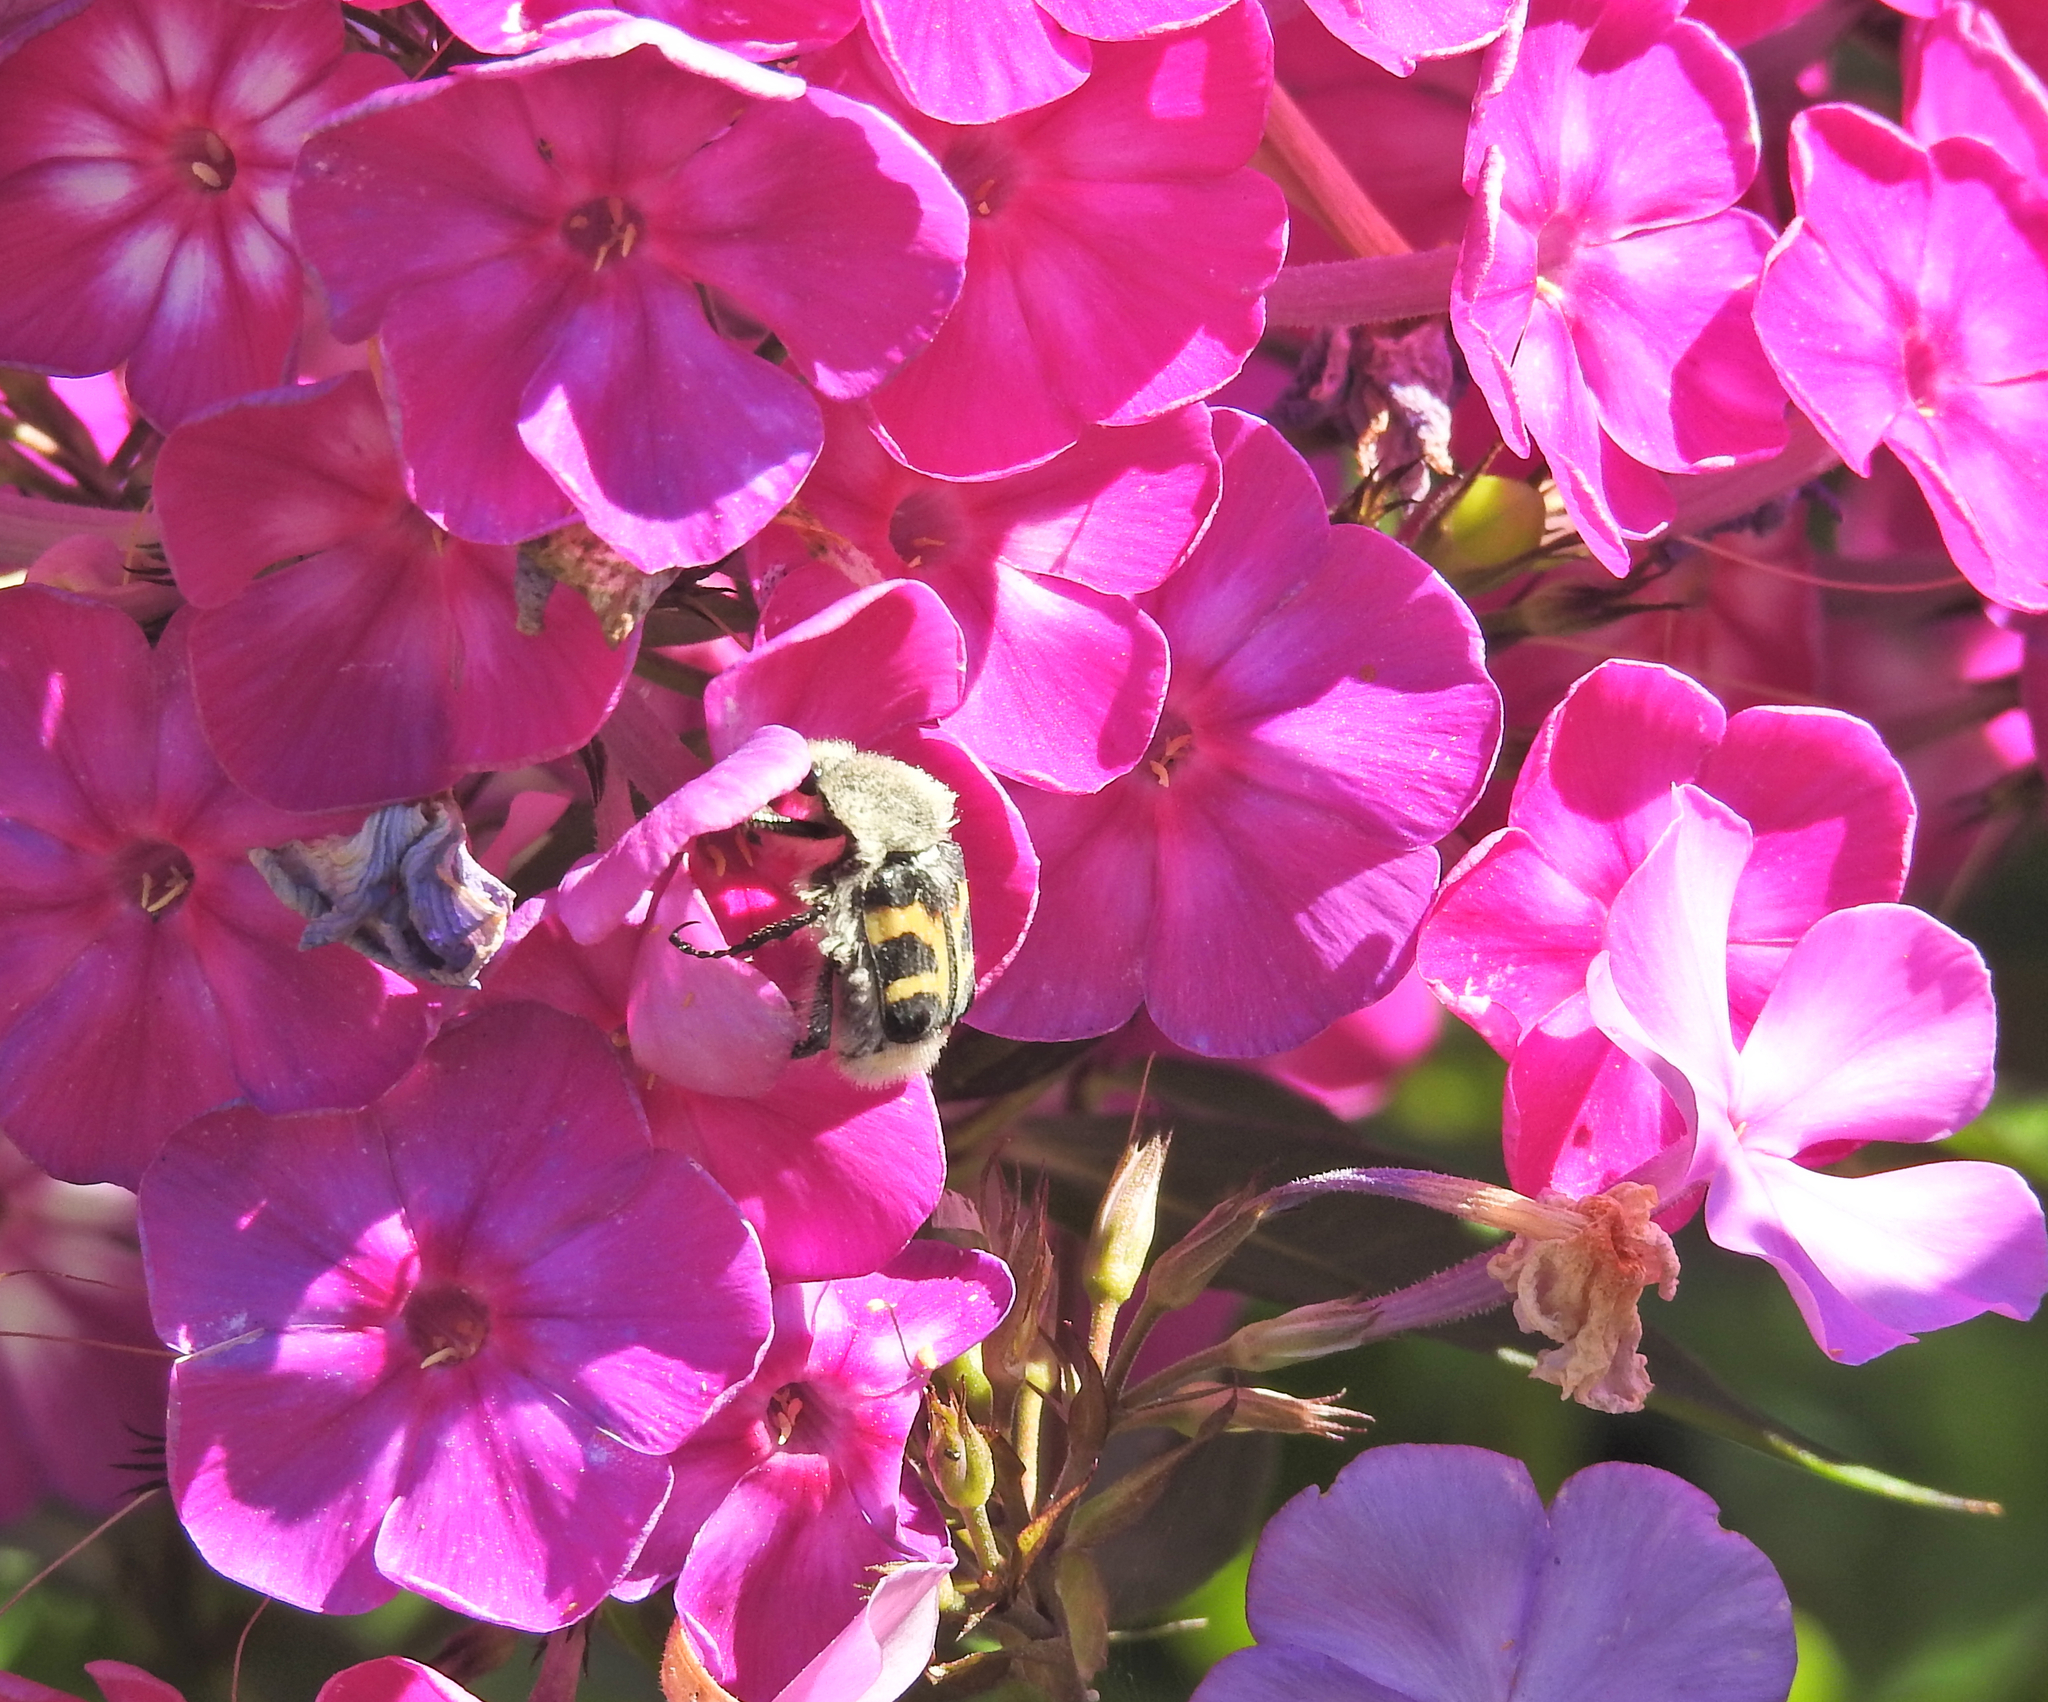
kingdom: Animalia
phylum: Arthropoda
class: Insecta
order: Coleoptera
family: Scarabaeidae
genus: Trichius
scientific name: Trichius fasciatus
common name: Bee beetle
